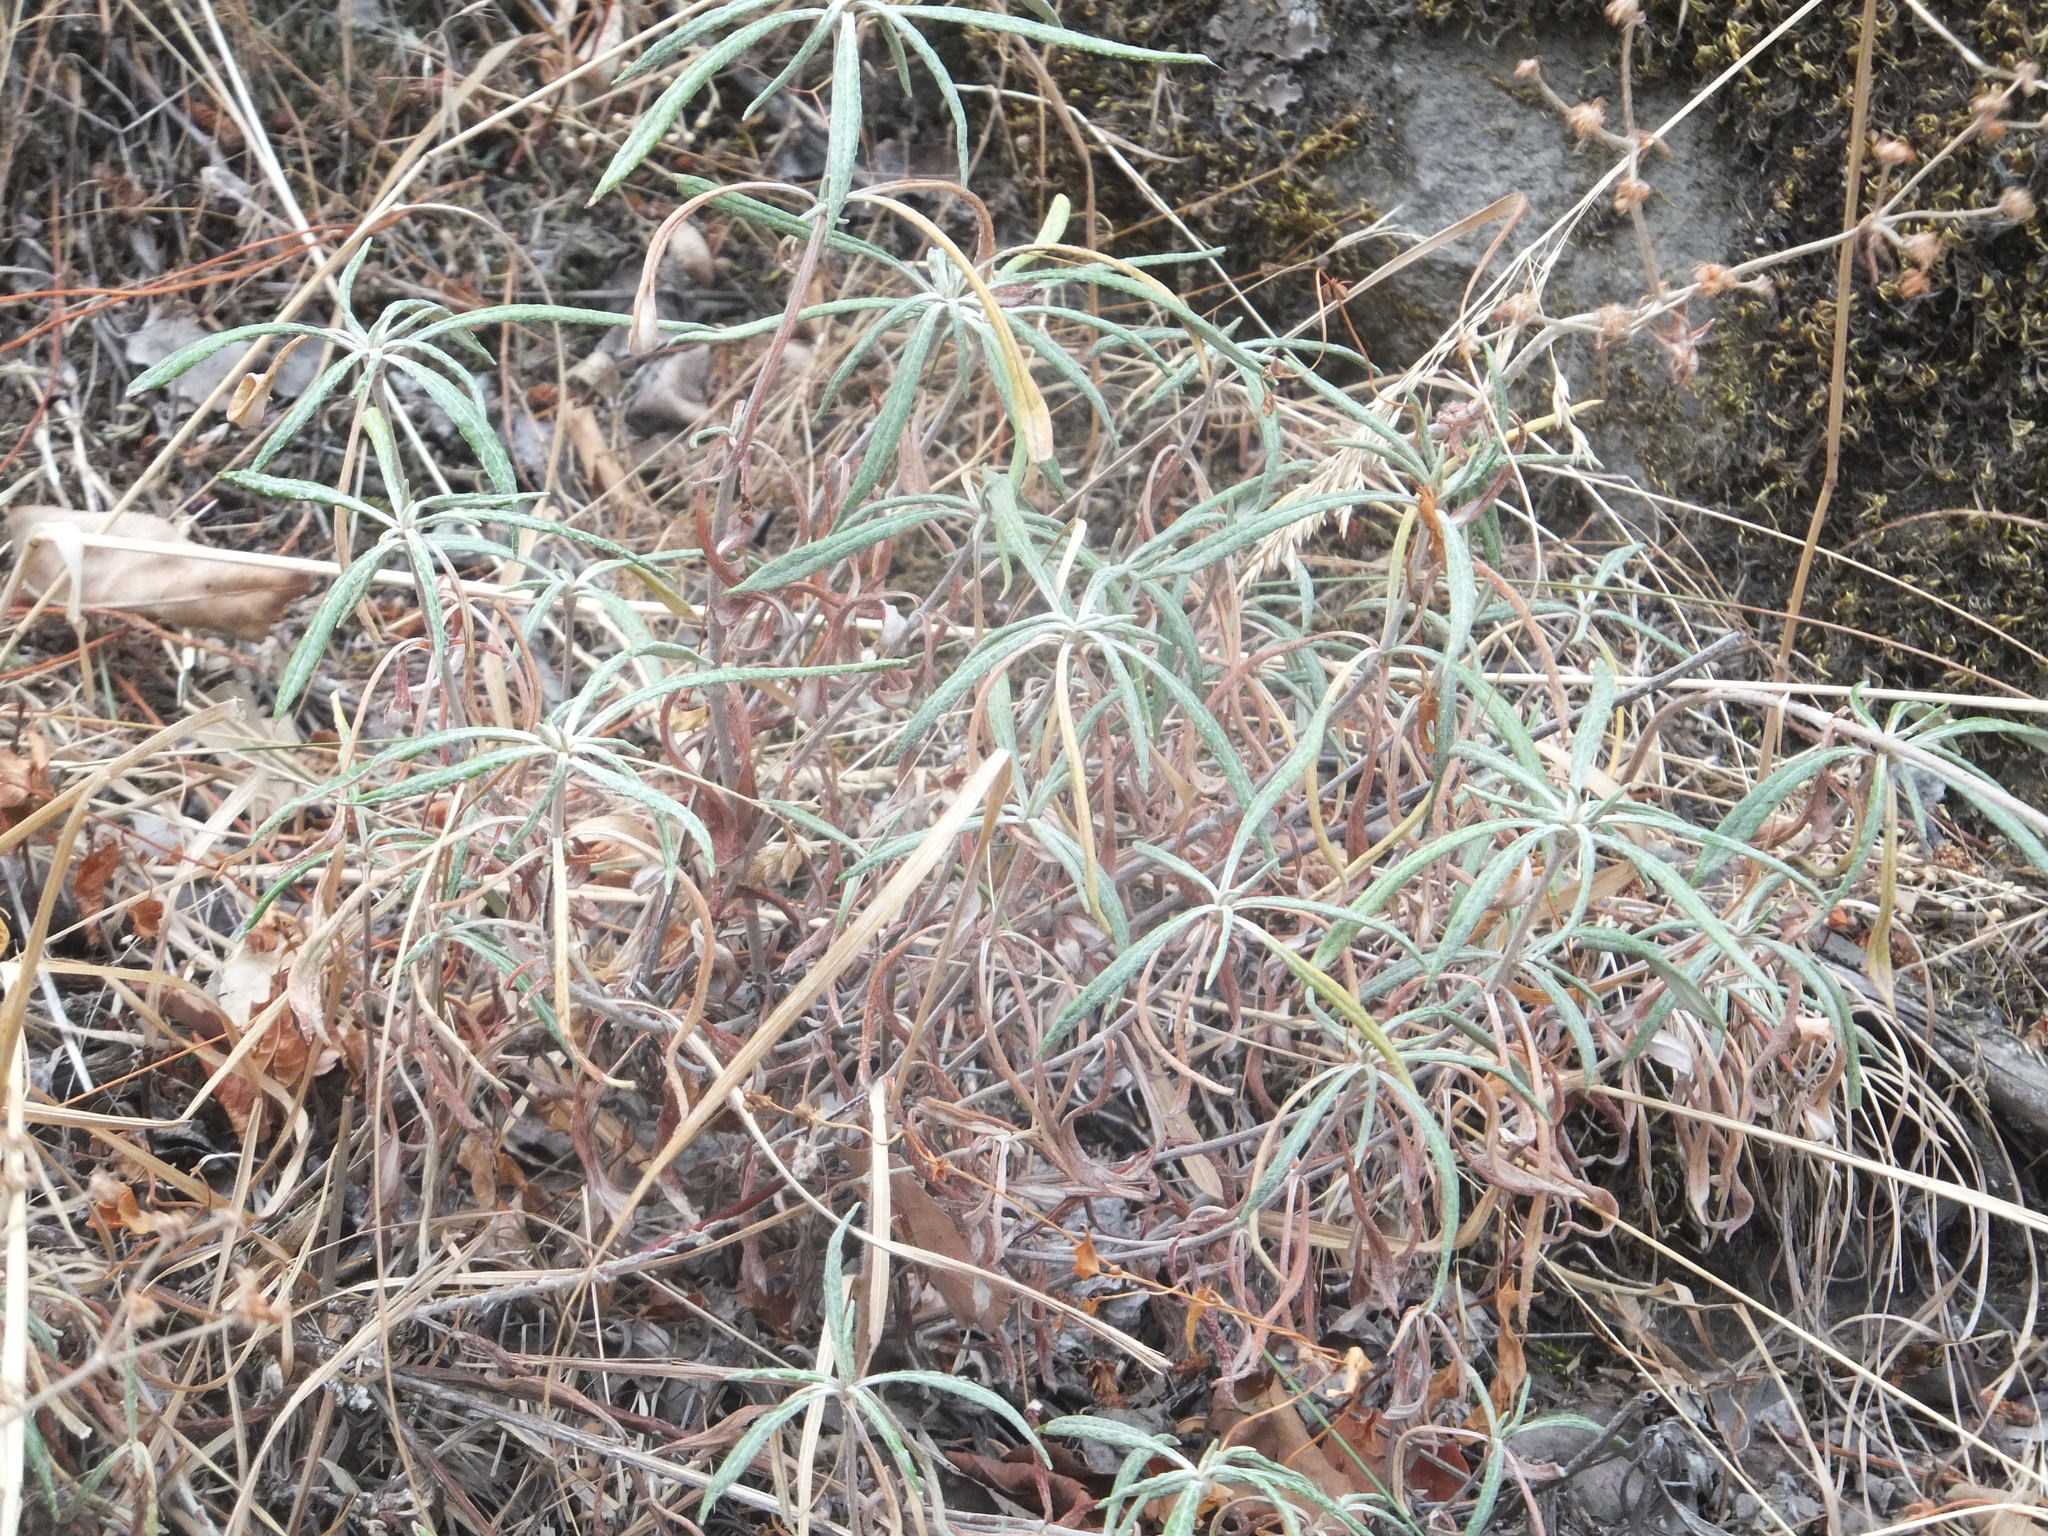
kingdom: Plantae
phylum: Tracheophyta
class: Magnoliopsida
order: Caryophyllales
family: Polygonaceae
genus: Eriogonum
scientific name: Eriogonum heracleoides
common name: Wyeth's buckwheat
